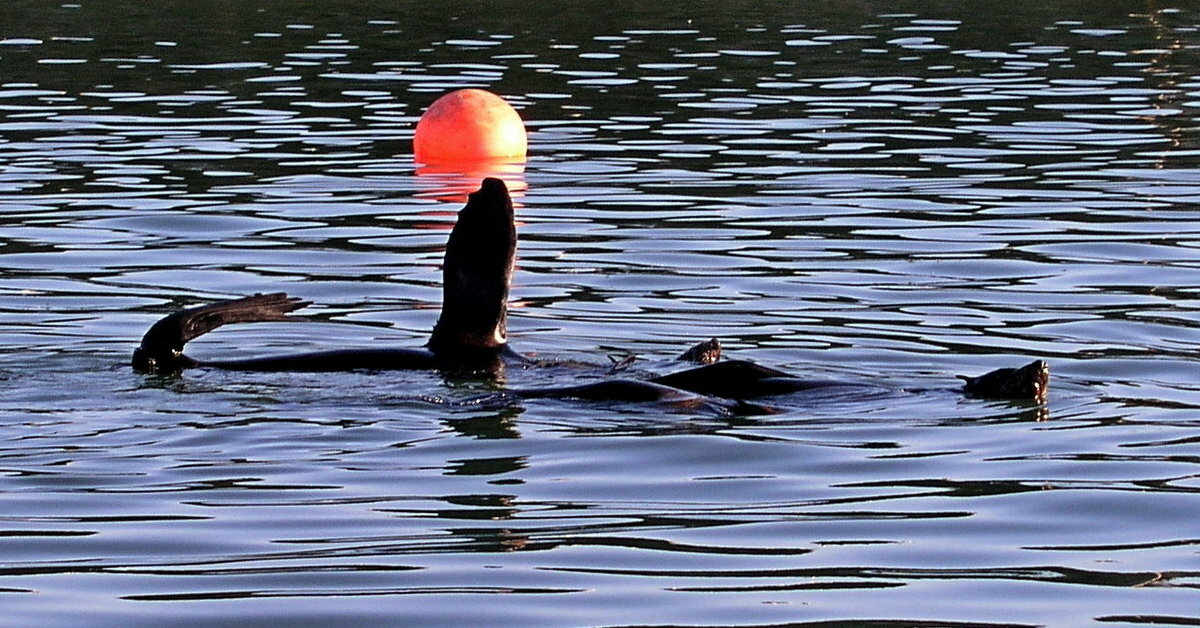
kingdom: Animalia
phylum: Chordata
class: Mammalia
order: Carnivora
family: Otariidae
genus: Arctocephalus
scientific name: Arctocephalus pusillus
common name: Brown fur seal
